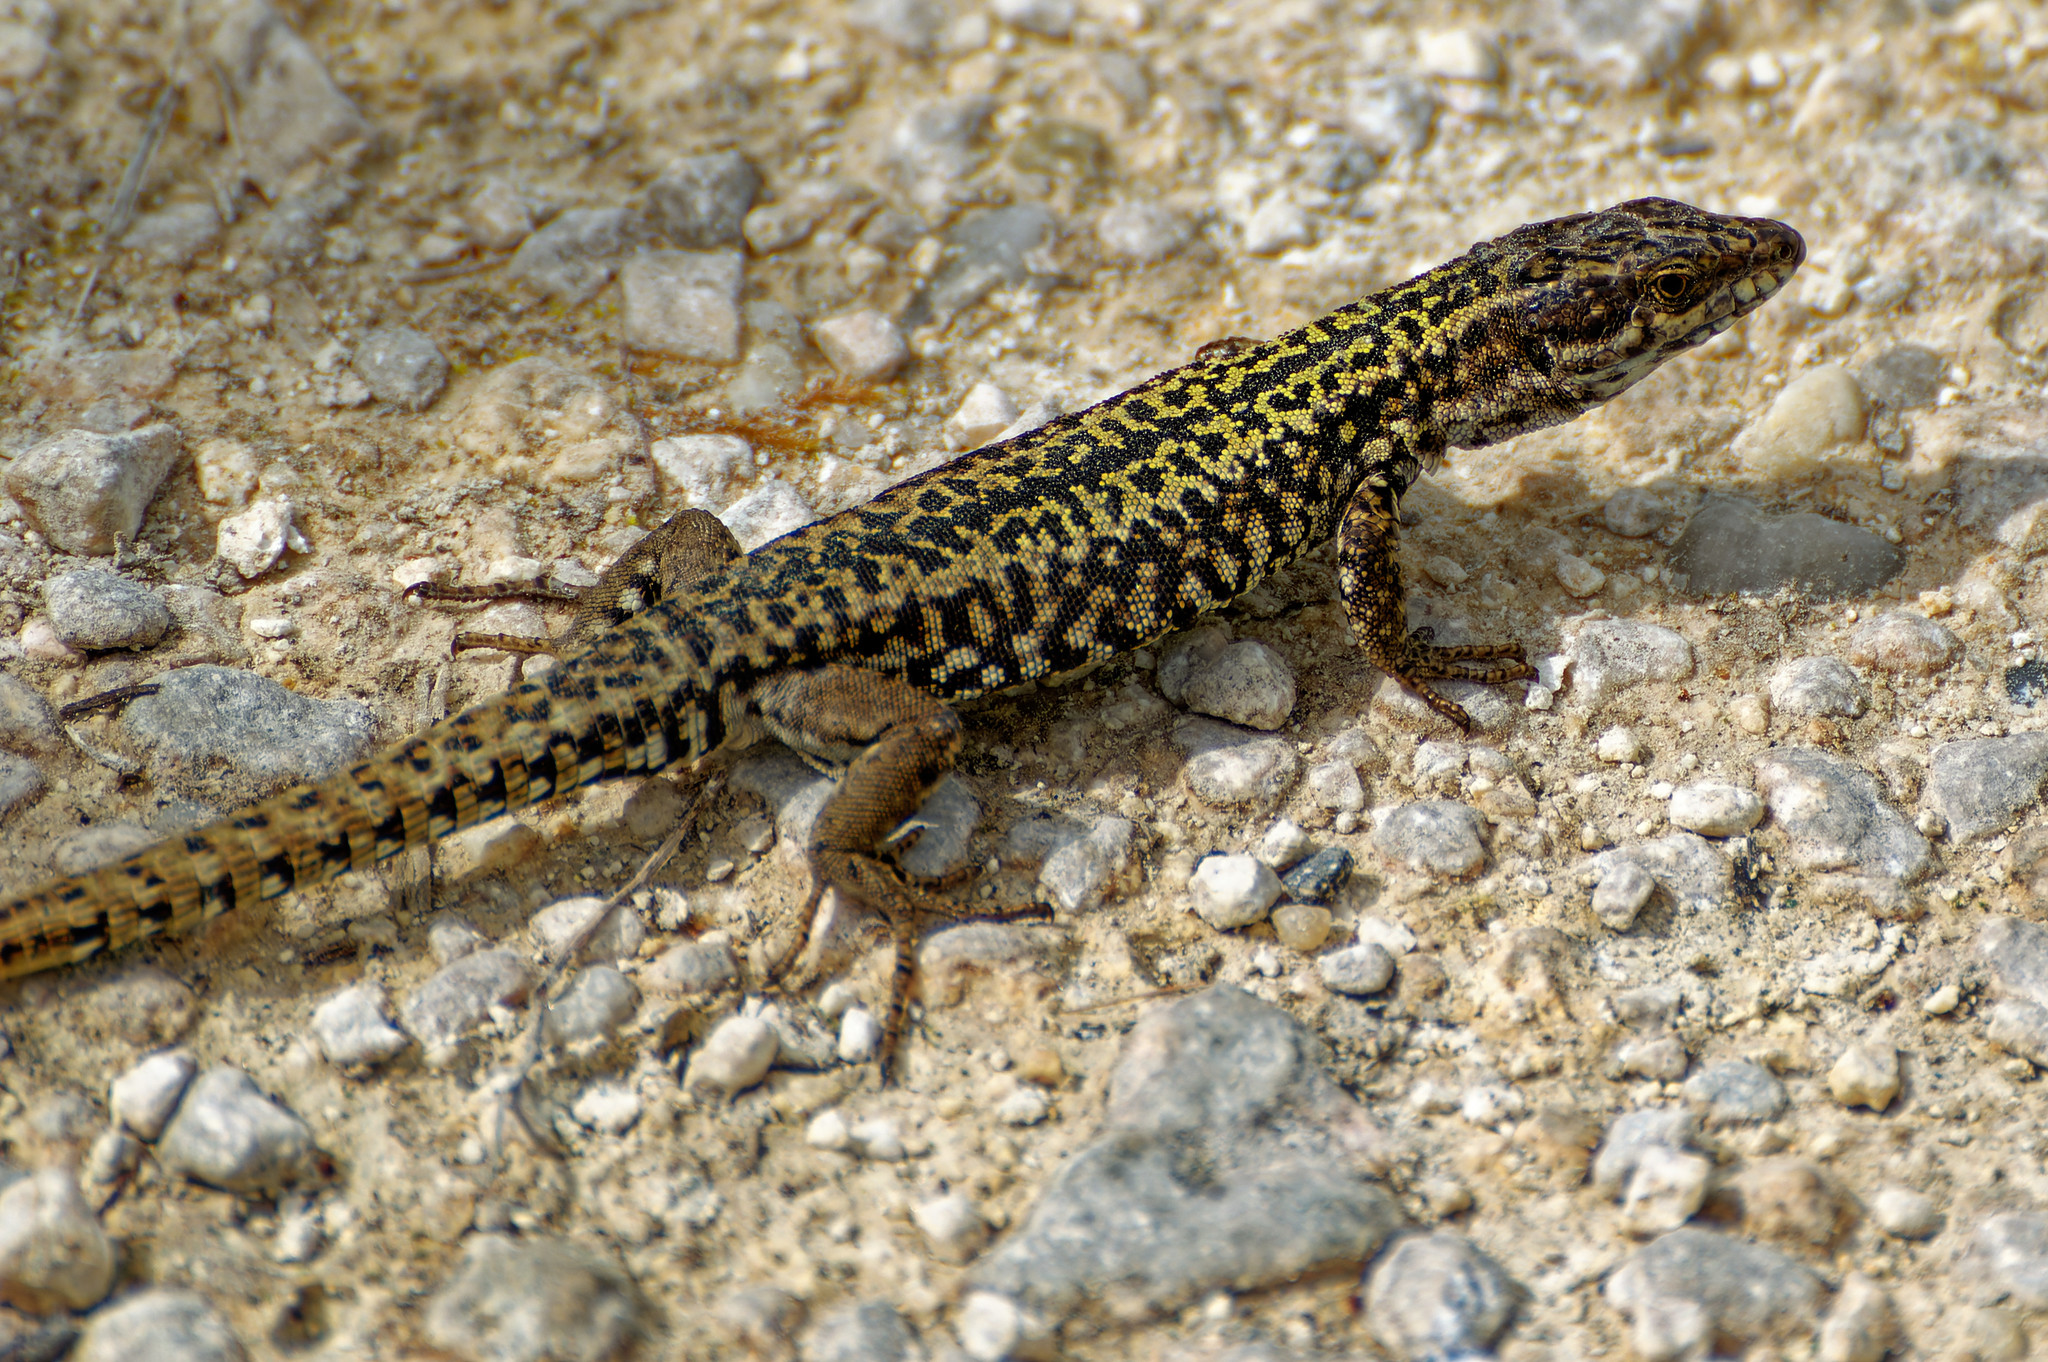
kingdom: Animalia
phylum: Chordata
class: Squamata
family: Lacertidae
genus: Podarcis
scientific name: Podarcis muralis
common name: Common wall lizard
